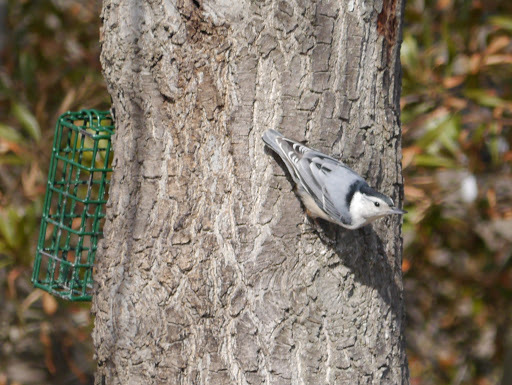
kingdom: Animalia
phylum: Chordata
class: Aves
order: Passeriformes
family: Sittidae
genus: Sitta
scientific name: Sitta carolinensis
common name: White-breasted nuthatch
